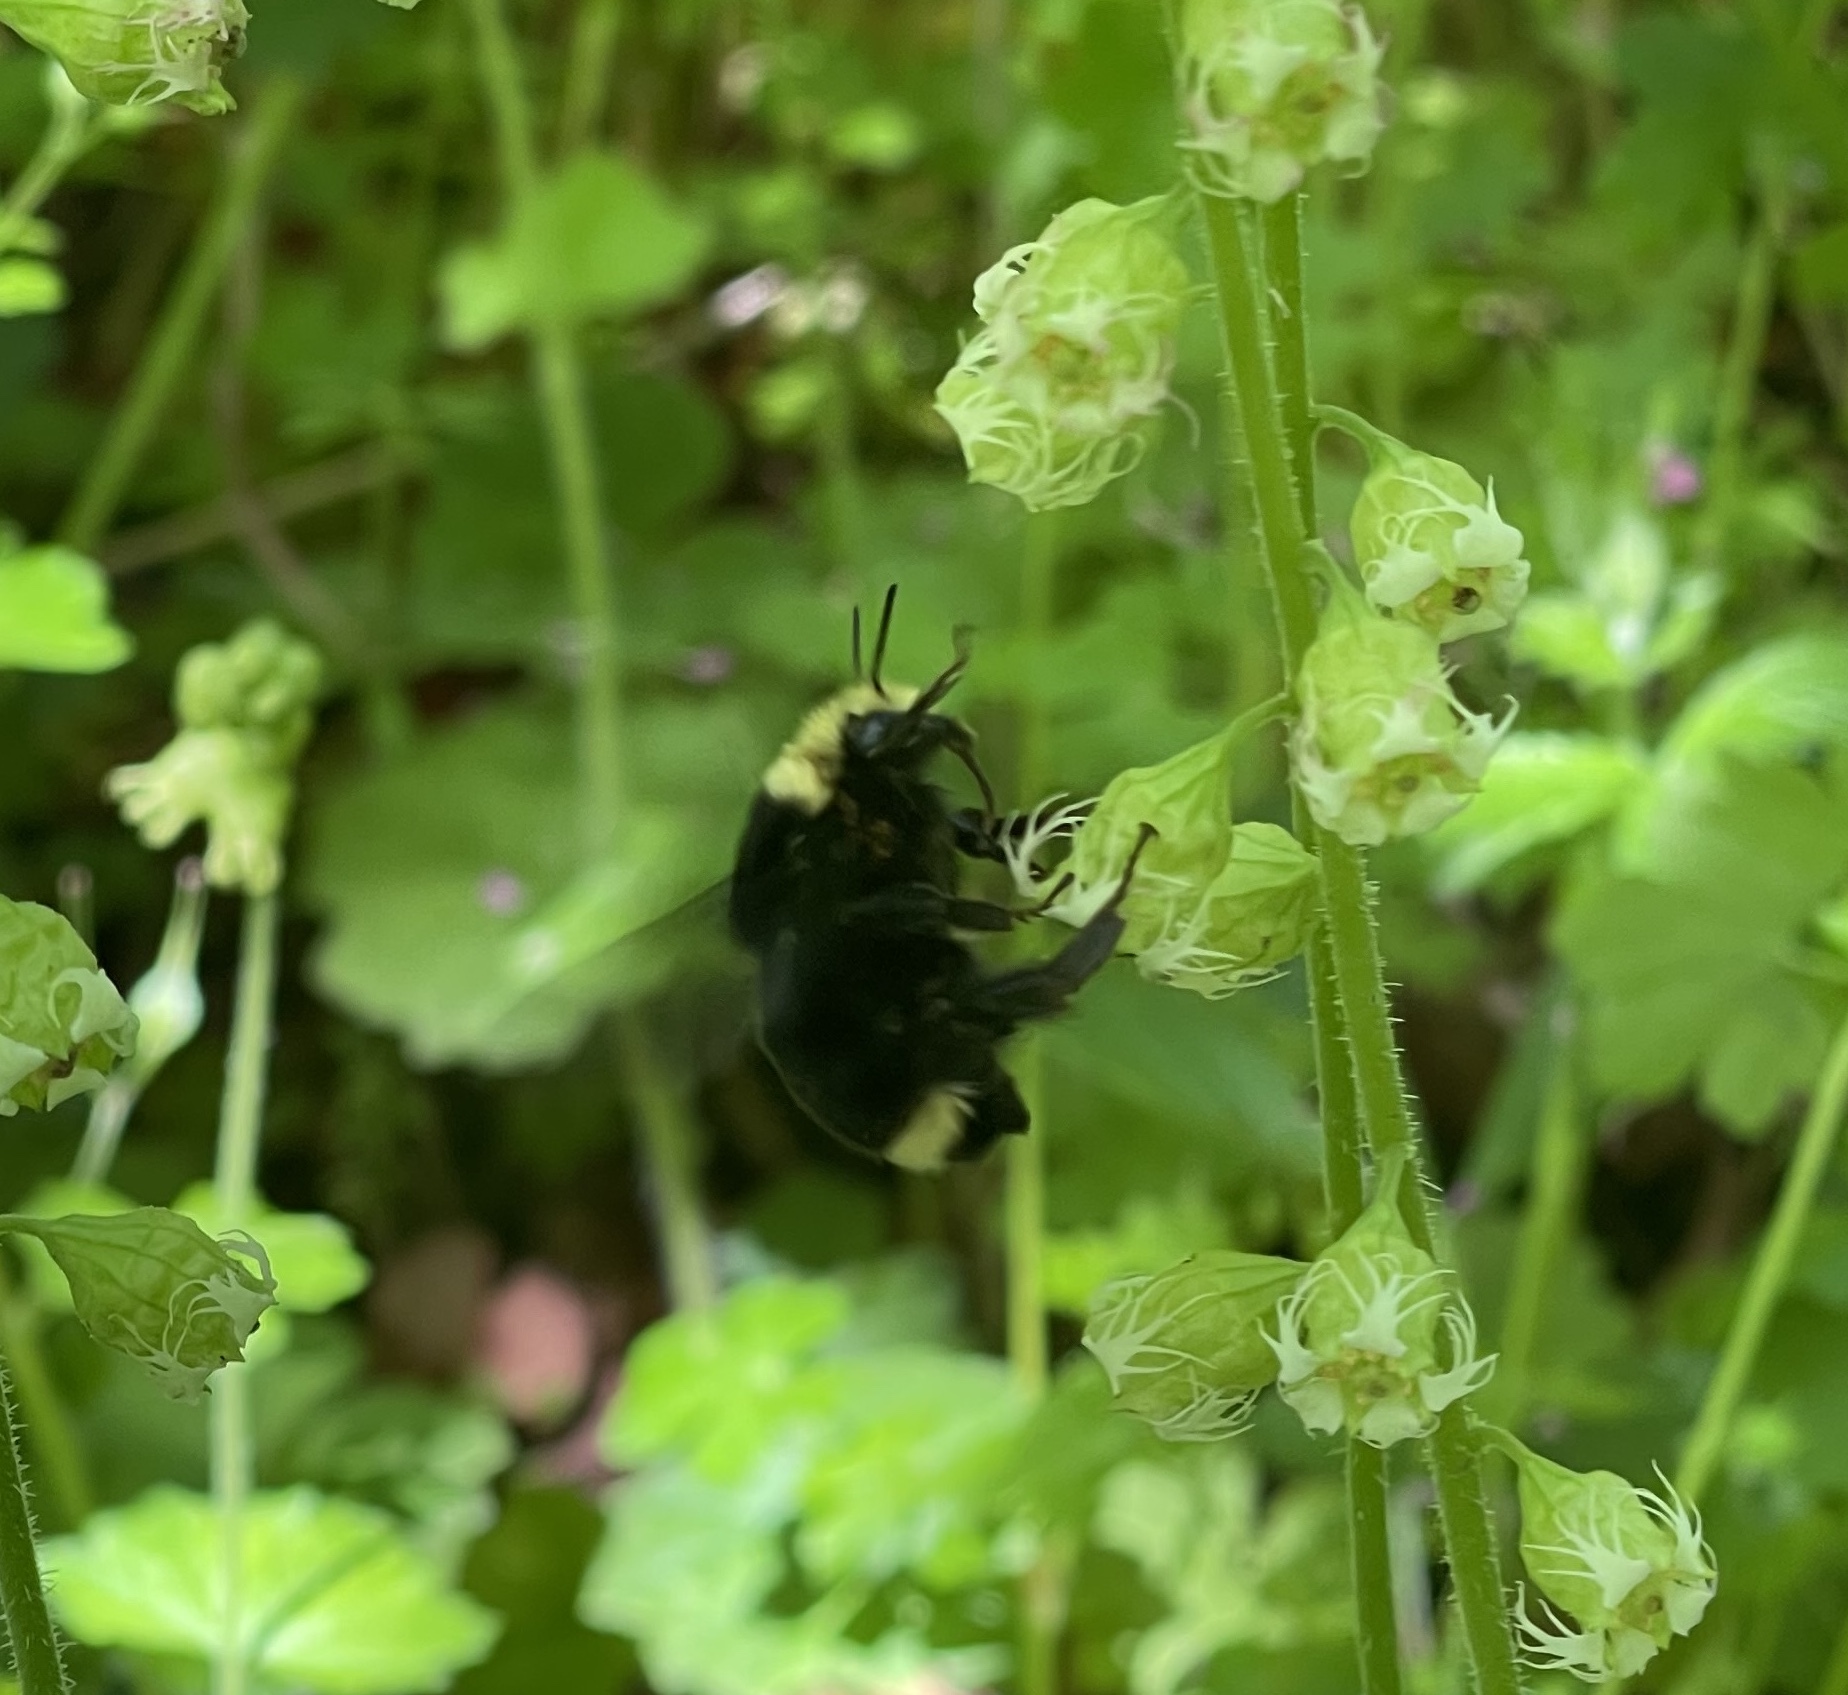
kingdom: Animalia
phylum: Arthropoda
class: Insecta
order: Hymenoptera
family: Apidae
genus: Bombus
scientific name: Bombus vosnesenskii
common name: Vosnesensky bumble bee
